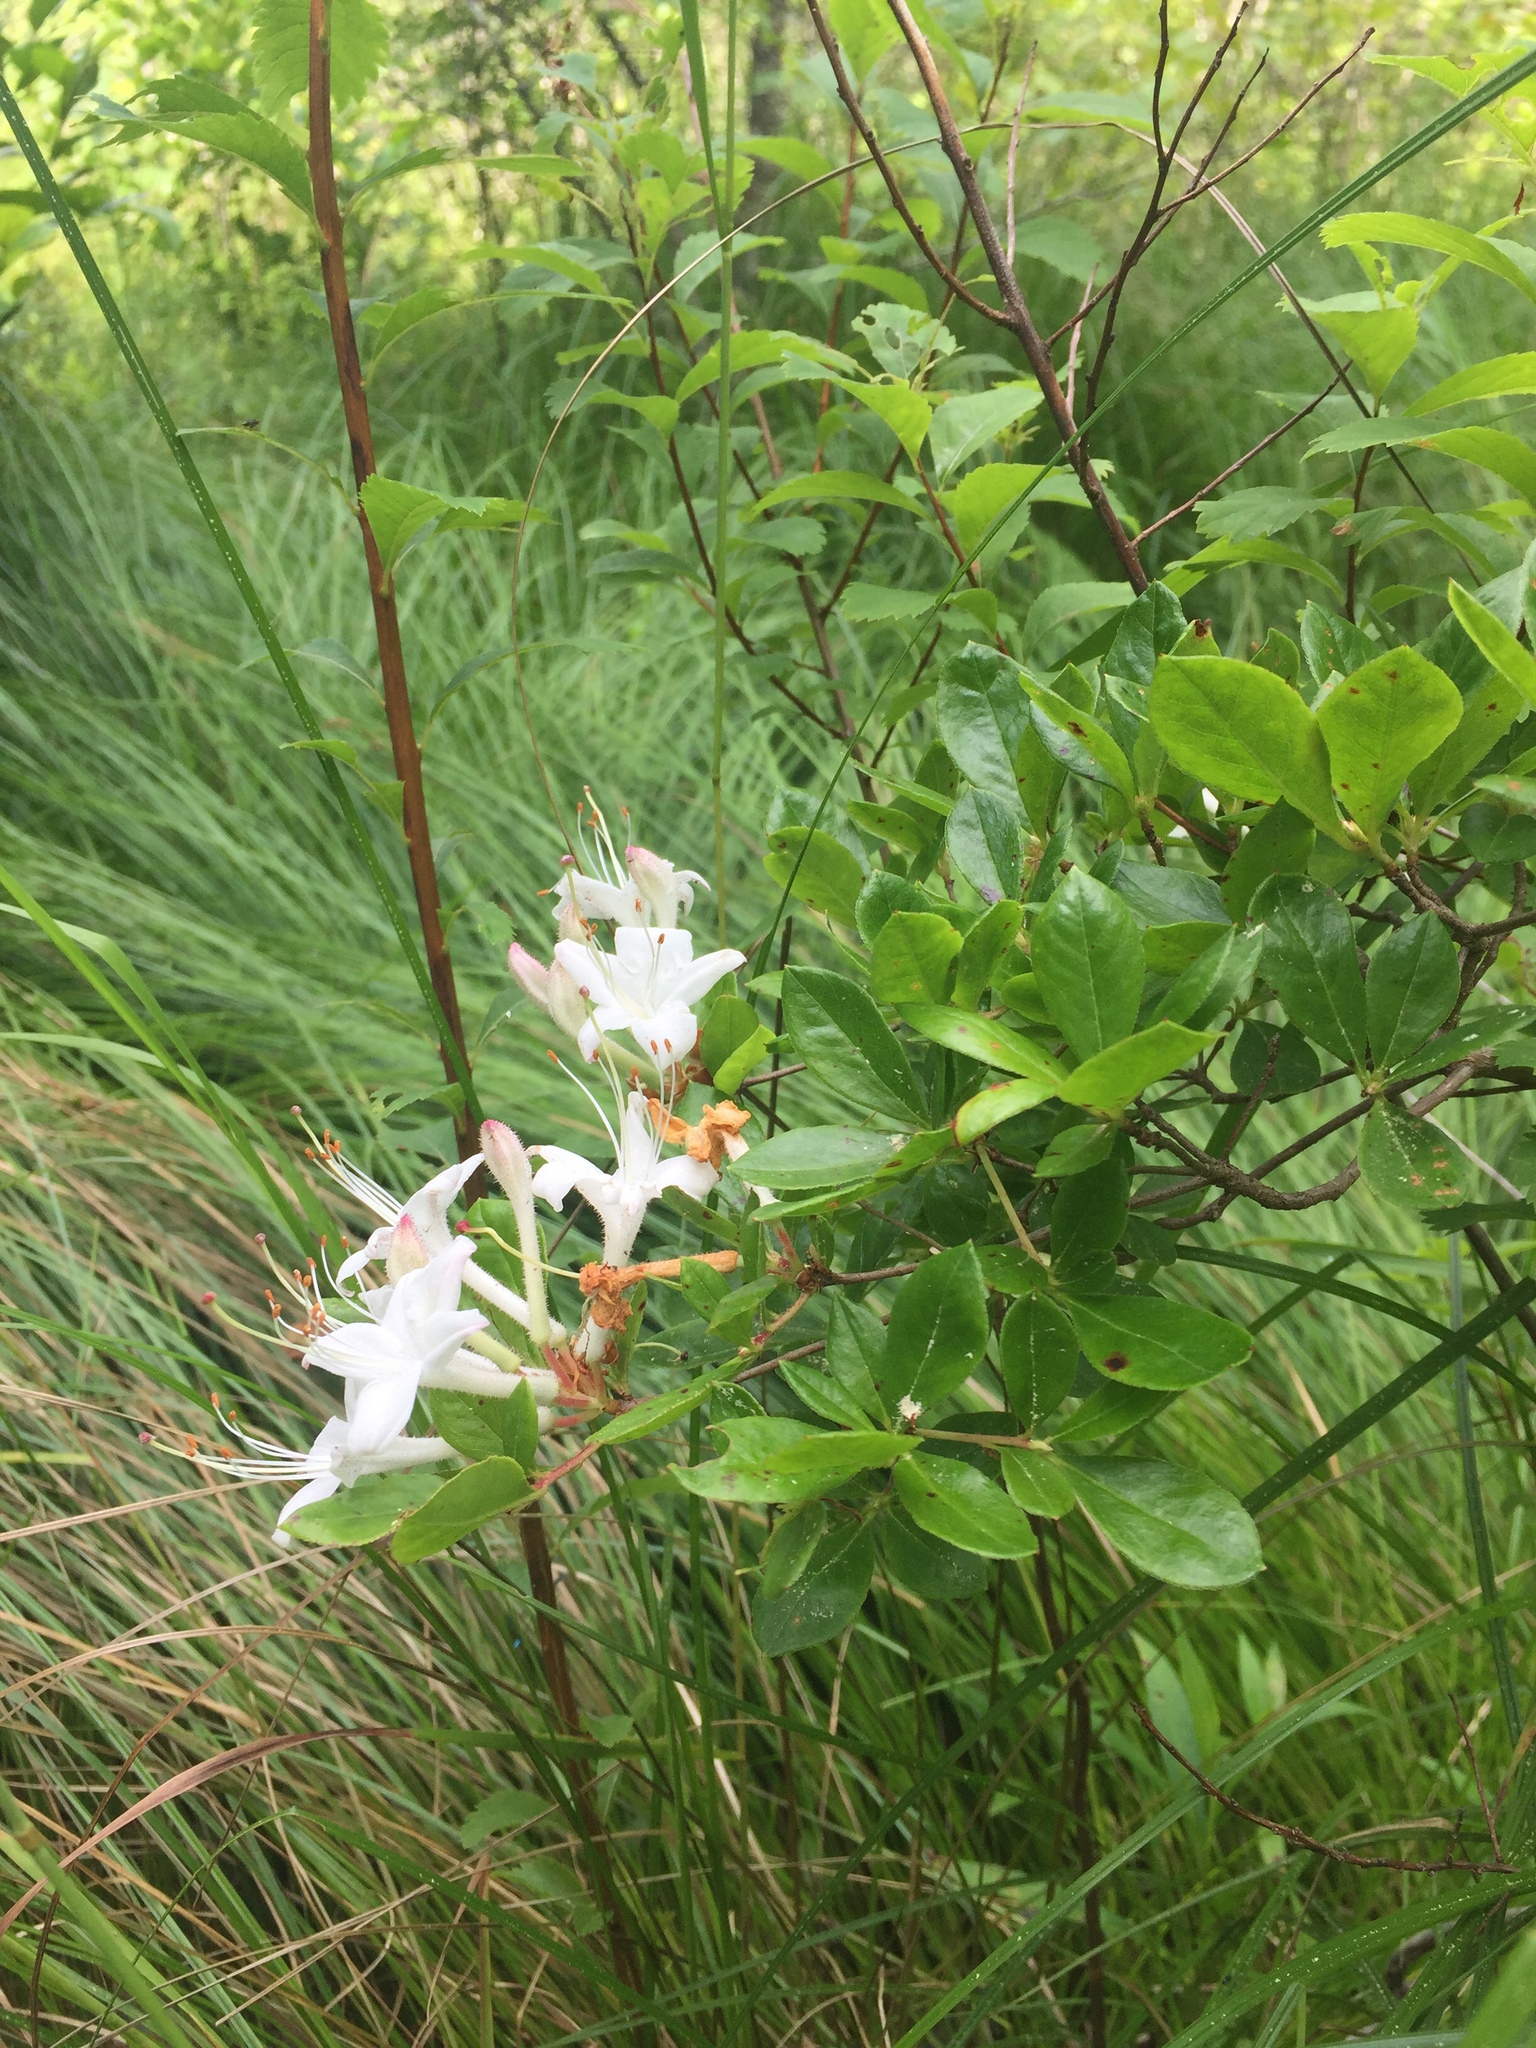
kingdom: Plantae
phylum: Tracheophyta
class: Magnoliopsida
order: Ericales
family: Ericaceae
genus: Rhododendron
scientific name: Rhododendron viscosum
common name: Clammy azalea
